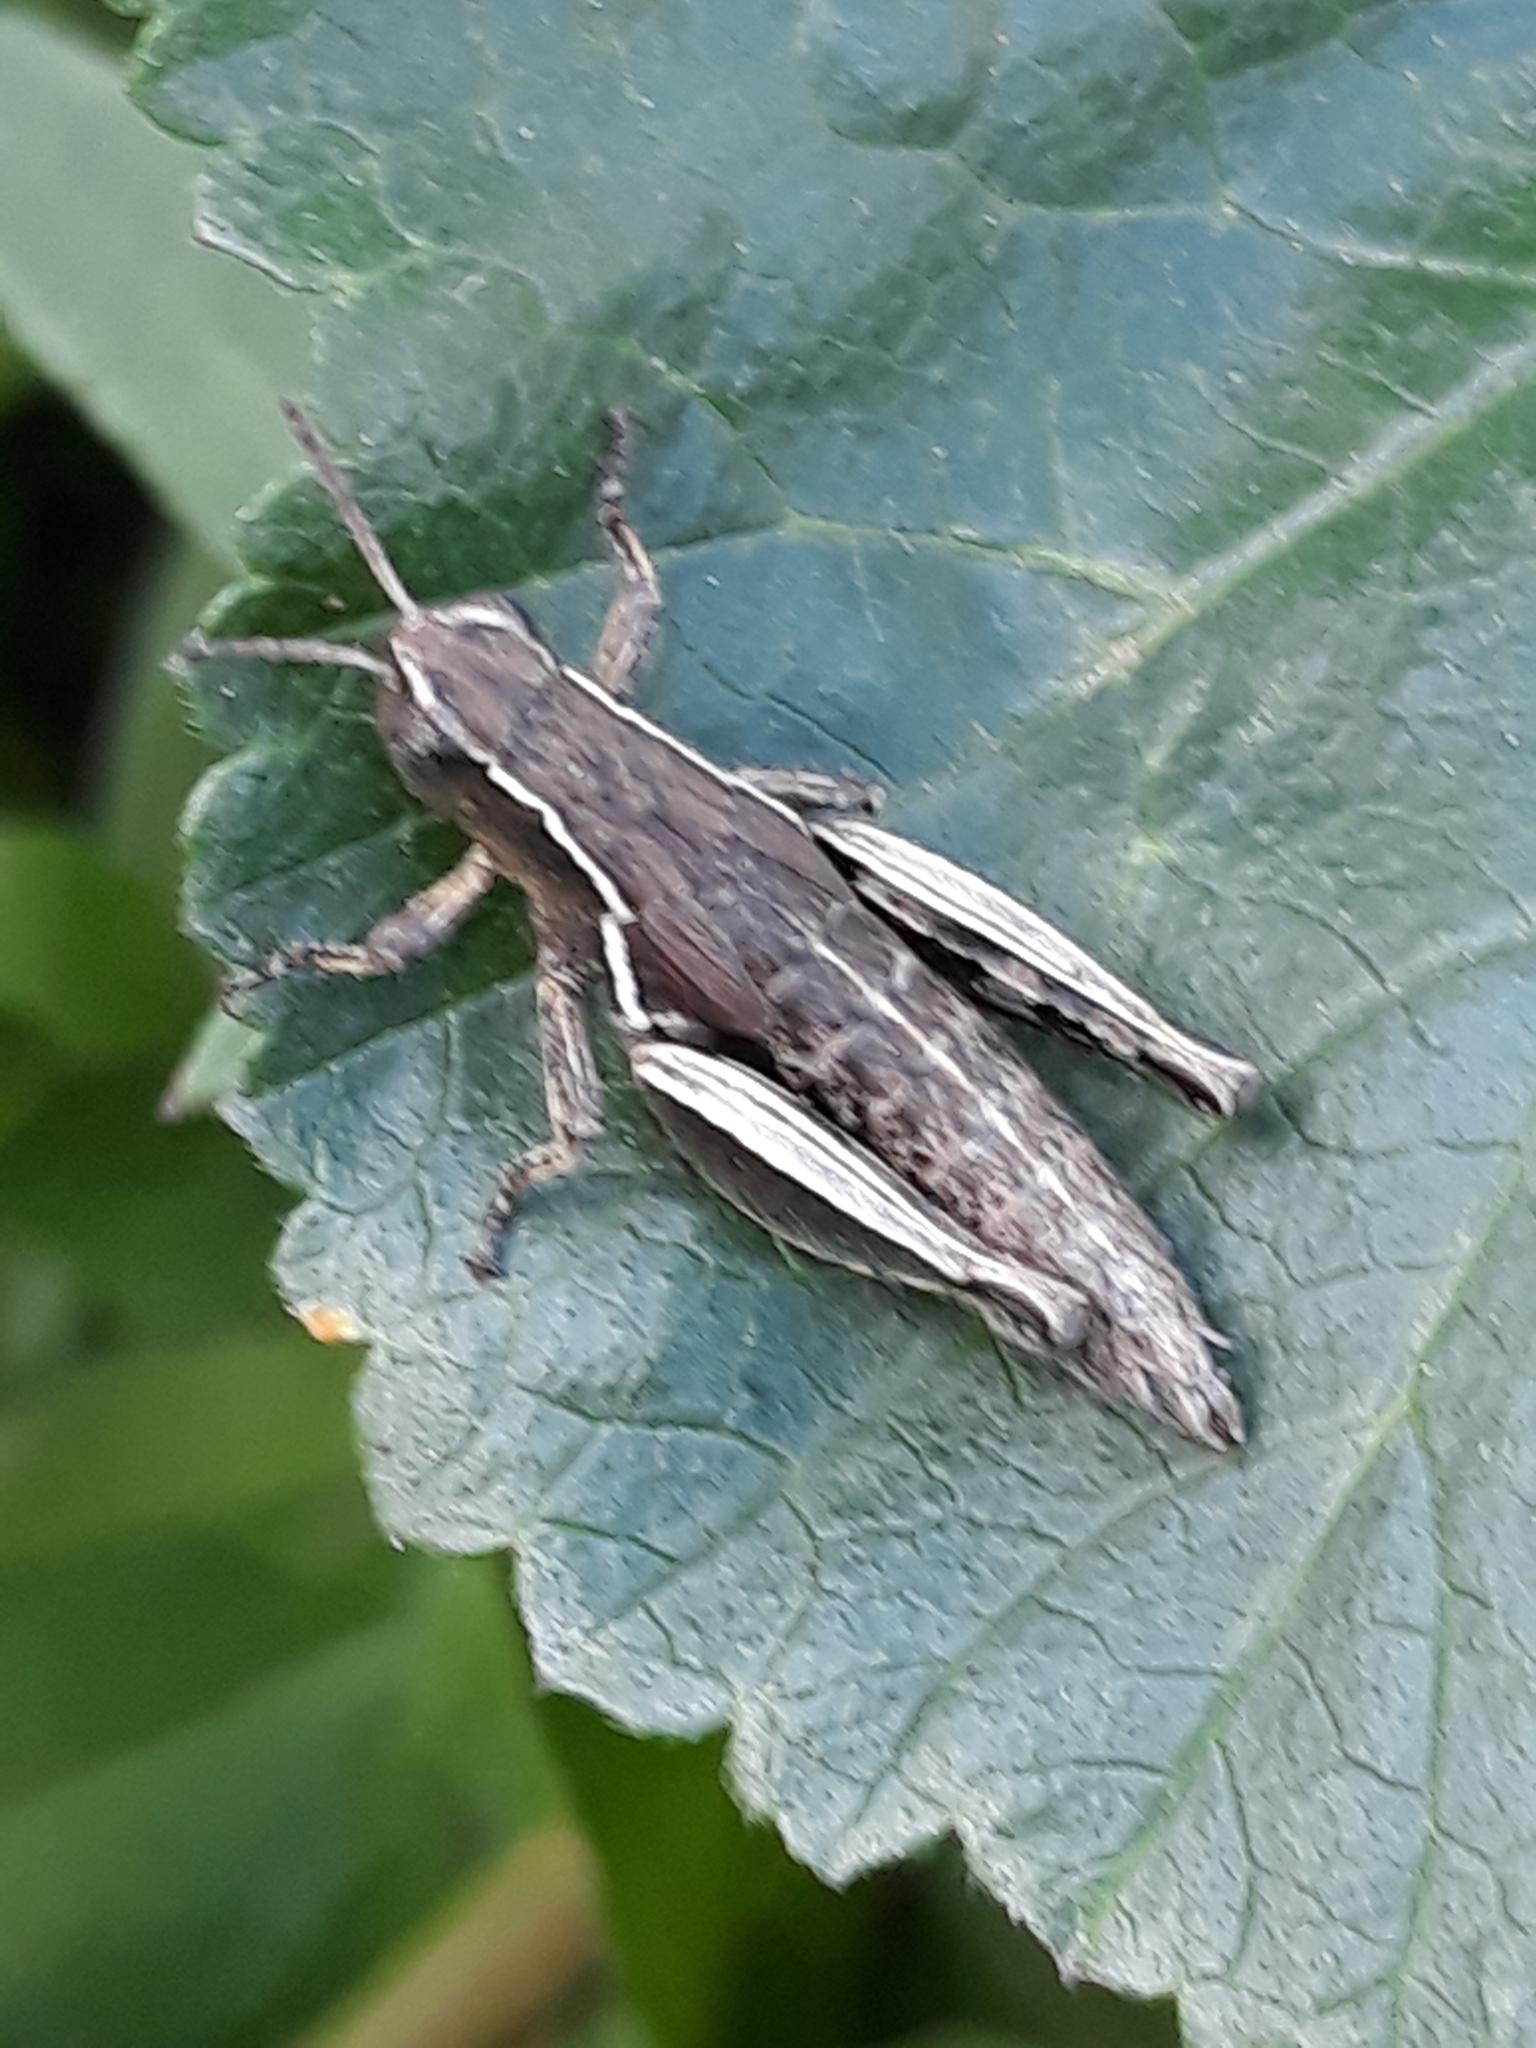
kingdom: Animalia
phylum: Arthropoda
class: Insecta
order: Orthoptera
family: Acrididae
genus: Pezotettix
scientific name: Pezotettix giornae
